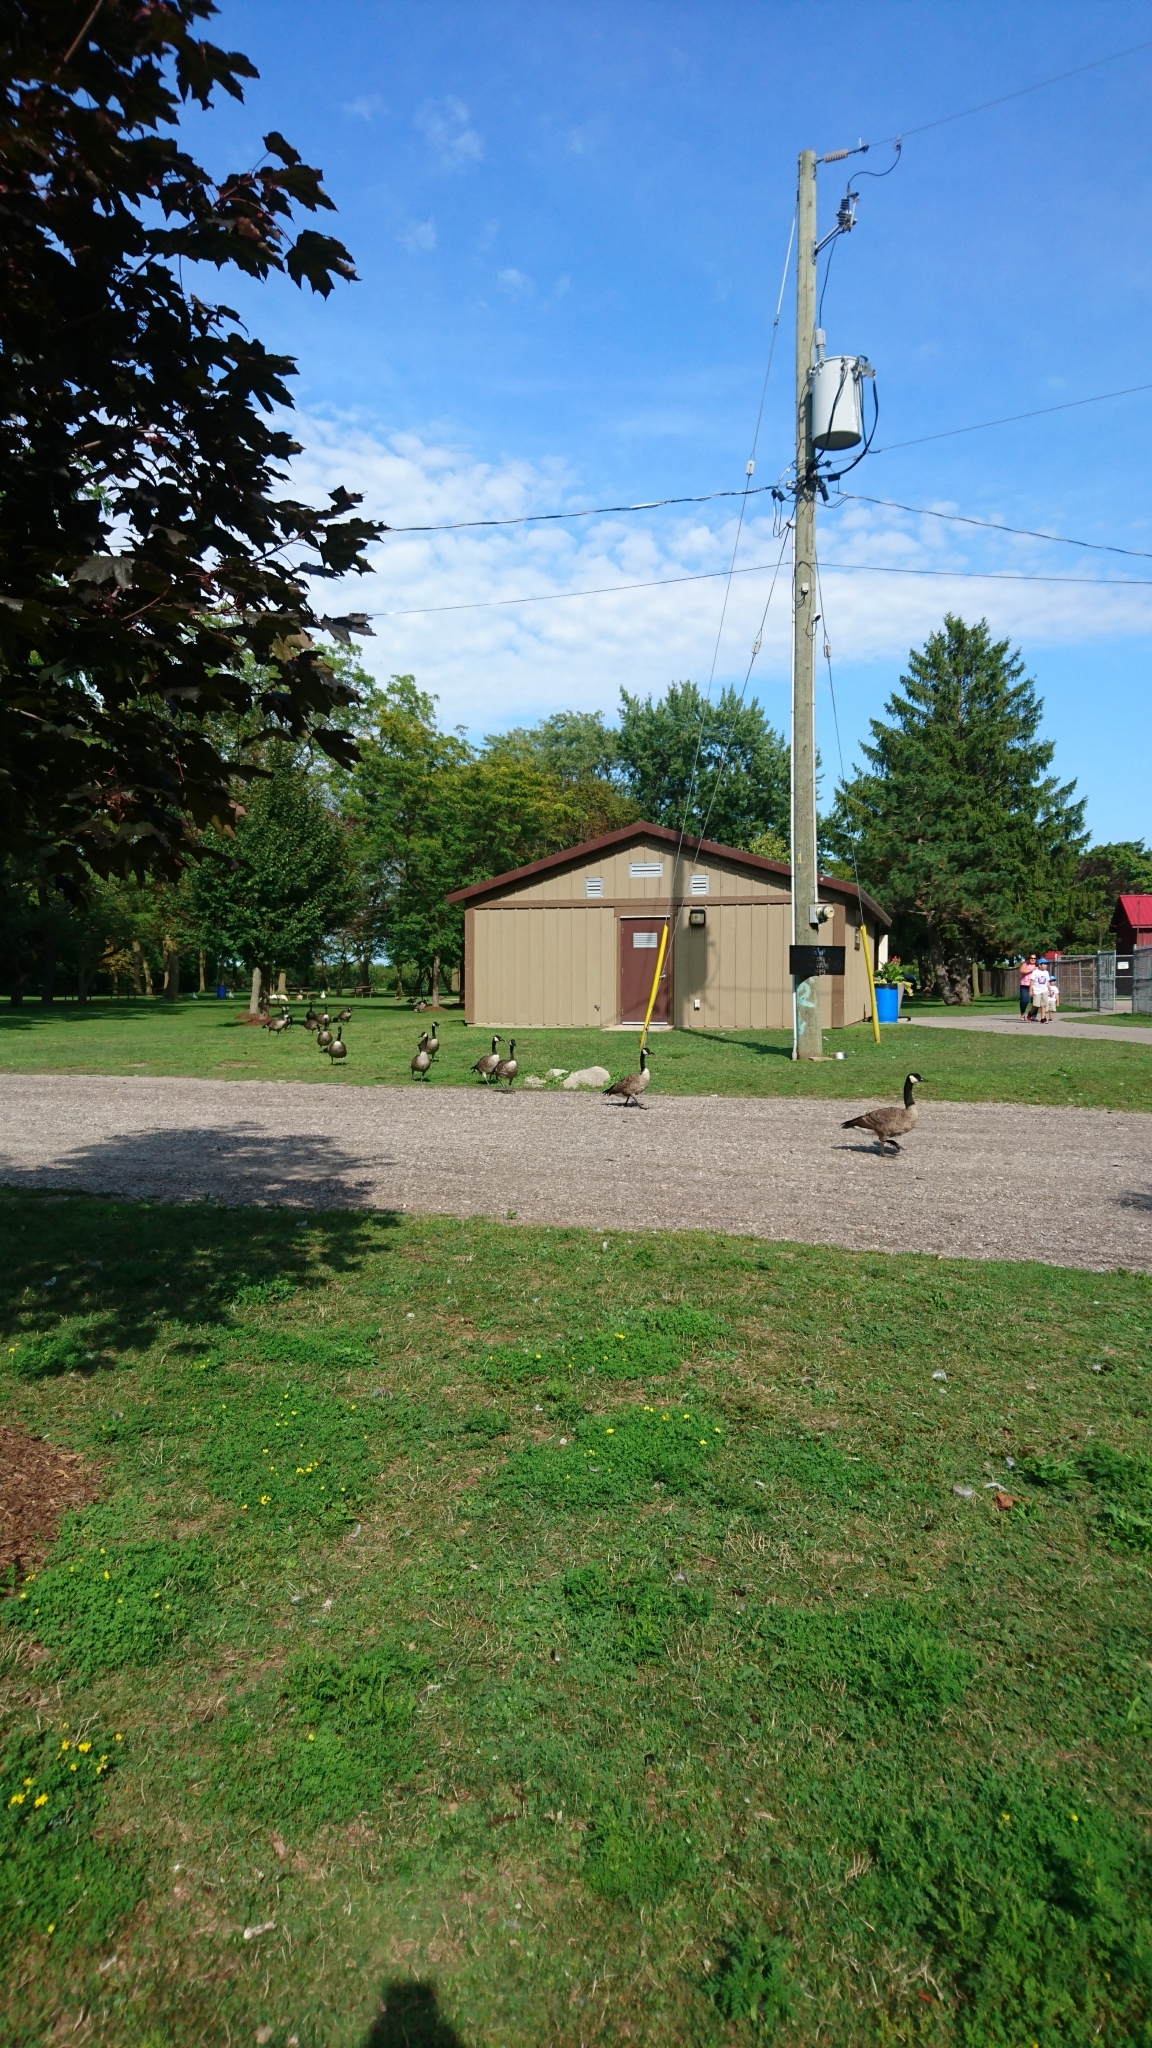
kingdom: Animalia
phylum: Chordata
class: Aves
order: Anseriformes
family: Anatidae
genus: Branta
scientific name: Branta canadensis
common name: Canada goose
